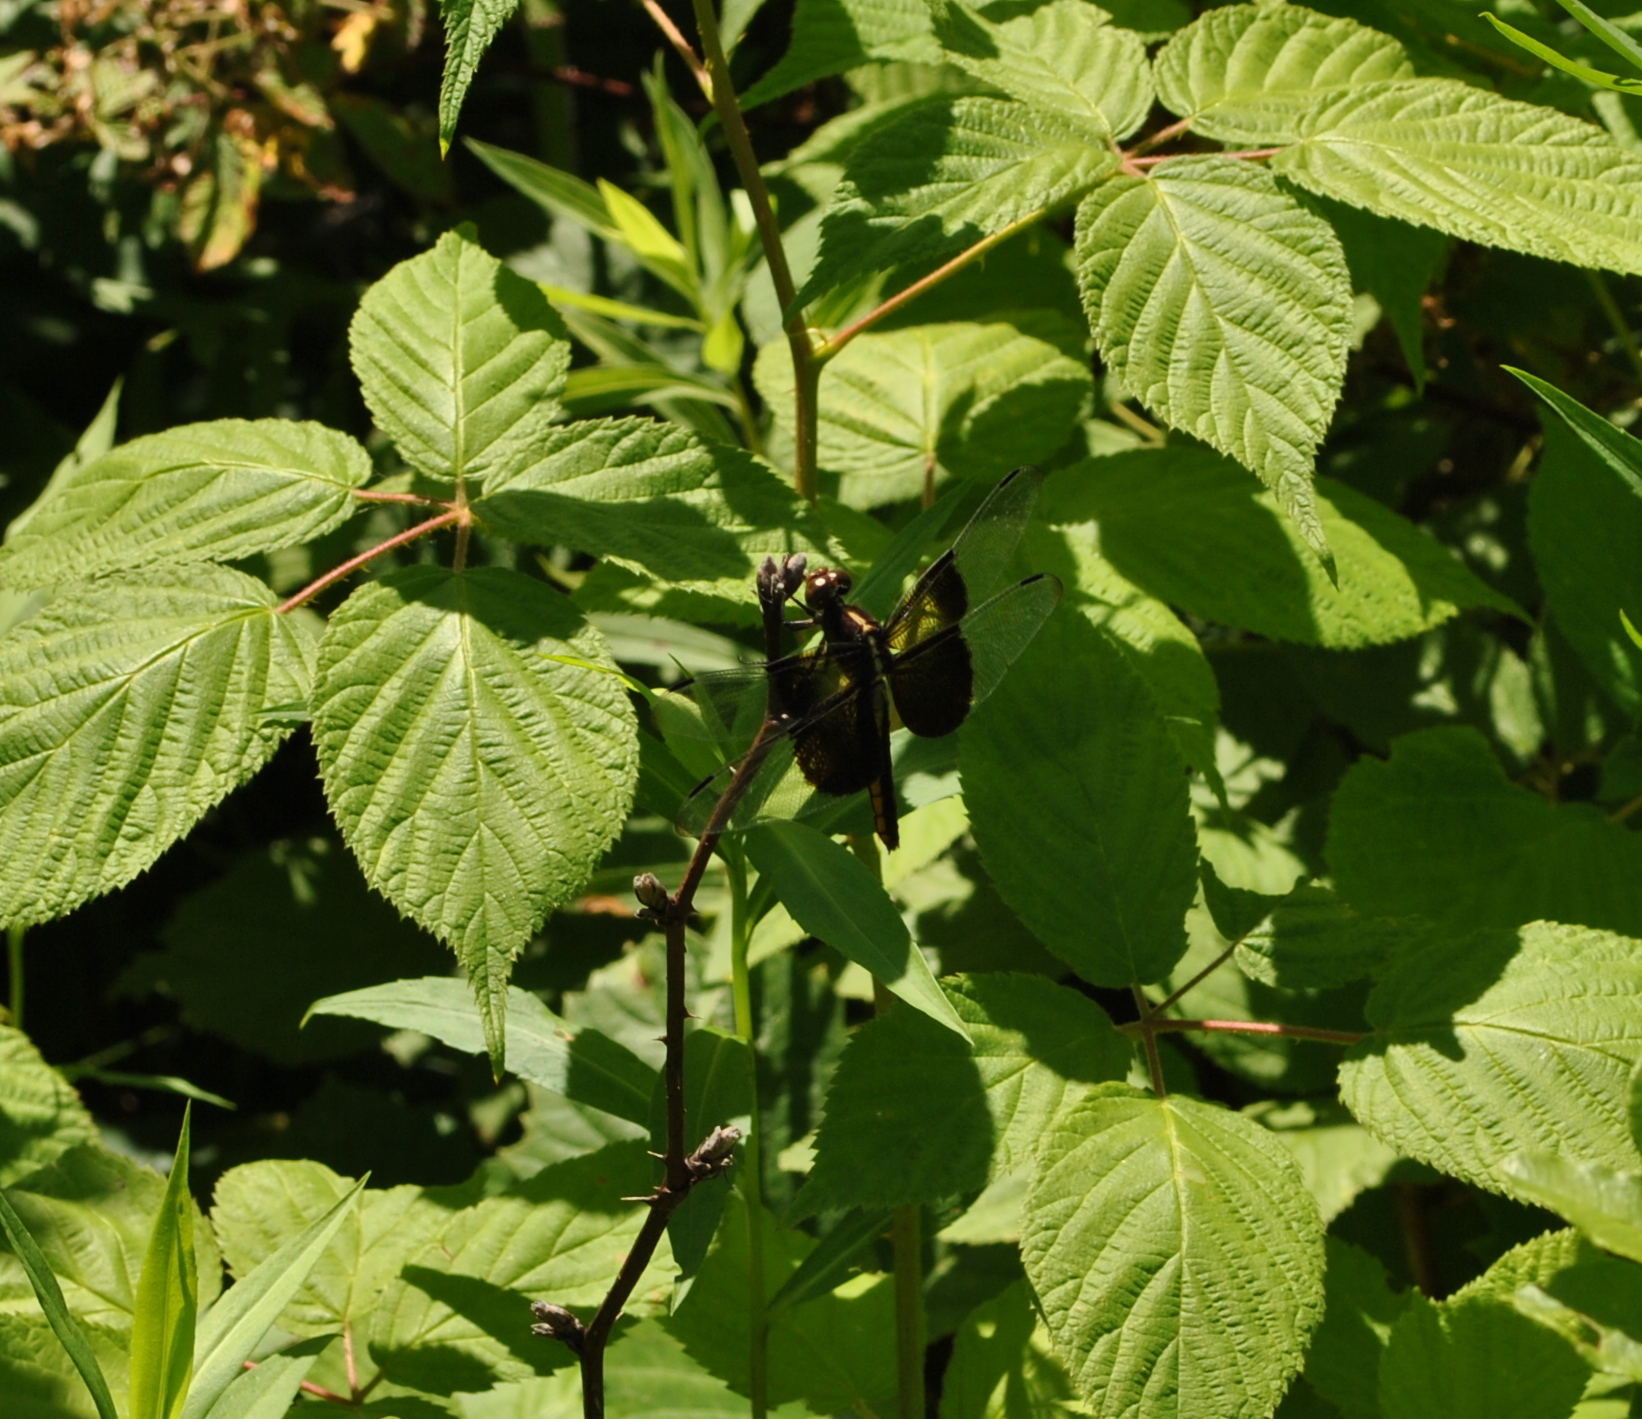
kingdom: Animalia
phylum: Arthropoda
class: Insecta
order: Odonata
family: Libellulidae
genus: Libellula
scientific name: Libellula luctuosa
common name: Widow skimmer
